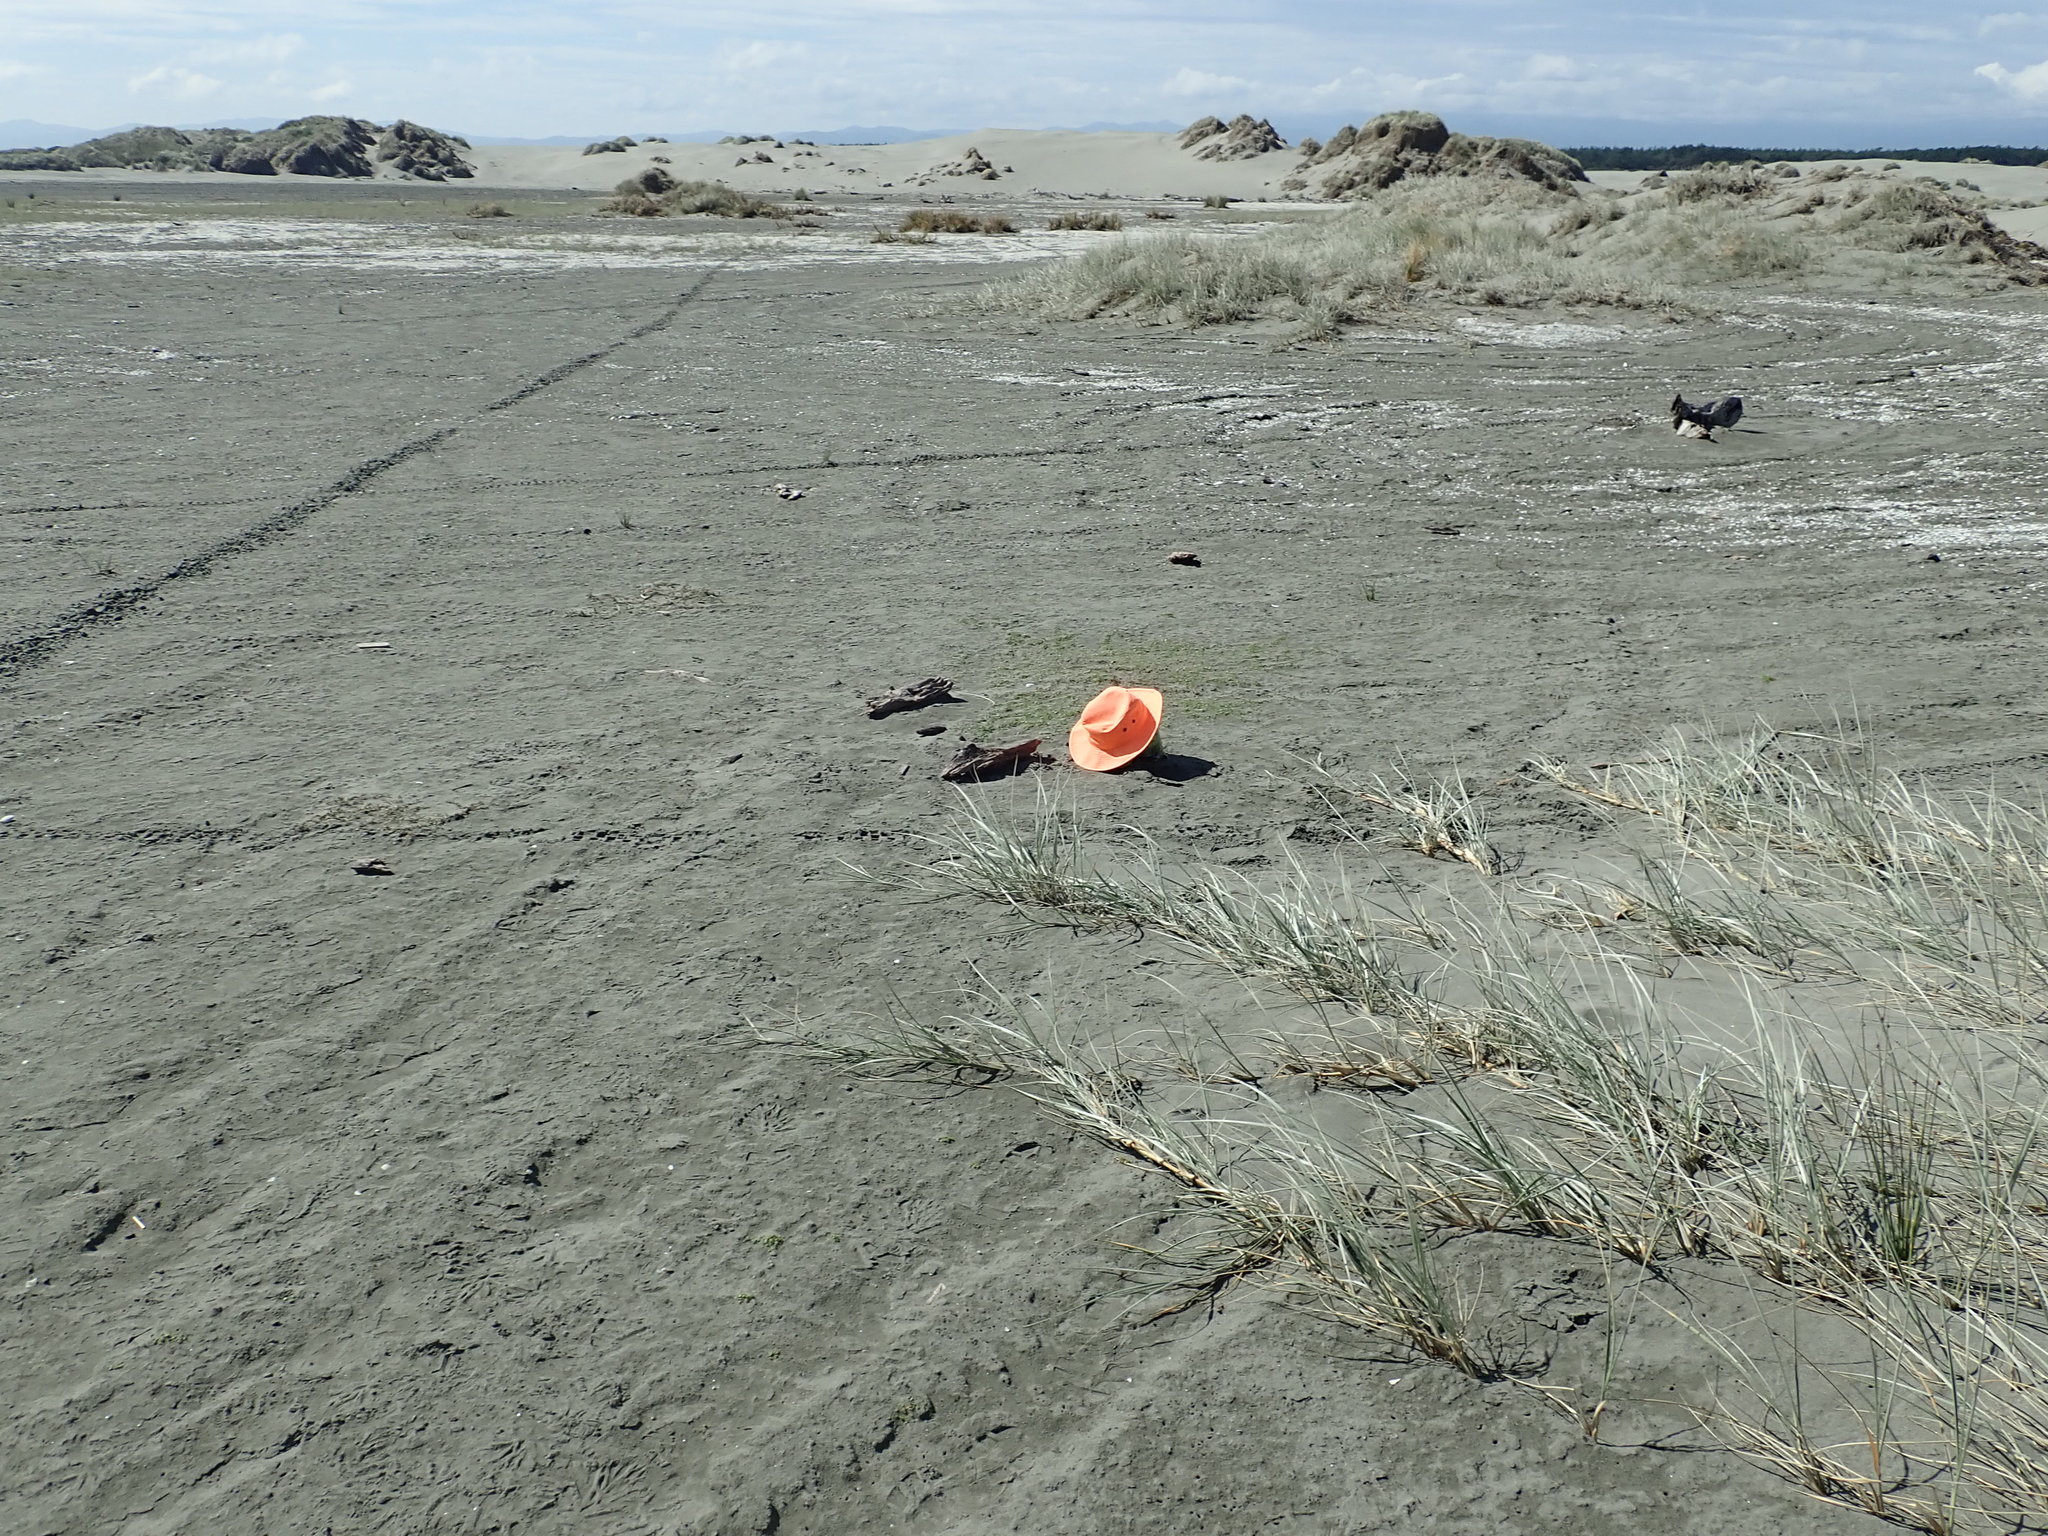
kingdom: Plantae
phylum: Tracheophyta
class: Magnoliopsida
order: Asterales
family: Goodeniaceae
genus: Goodenia
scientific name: Goodenia heenanii
